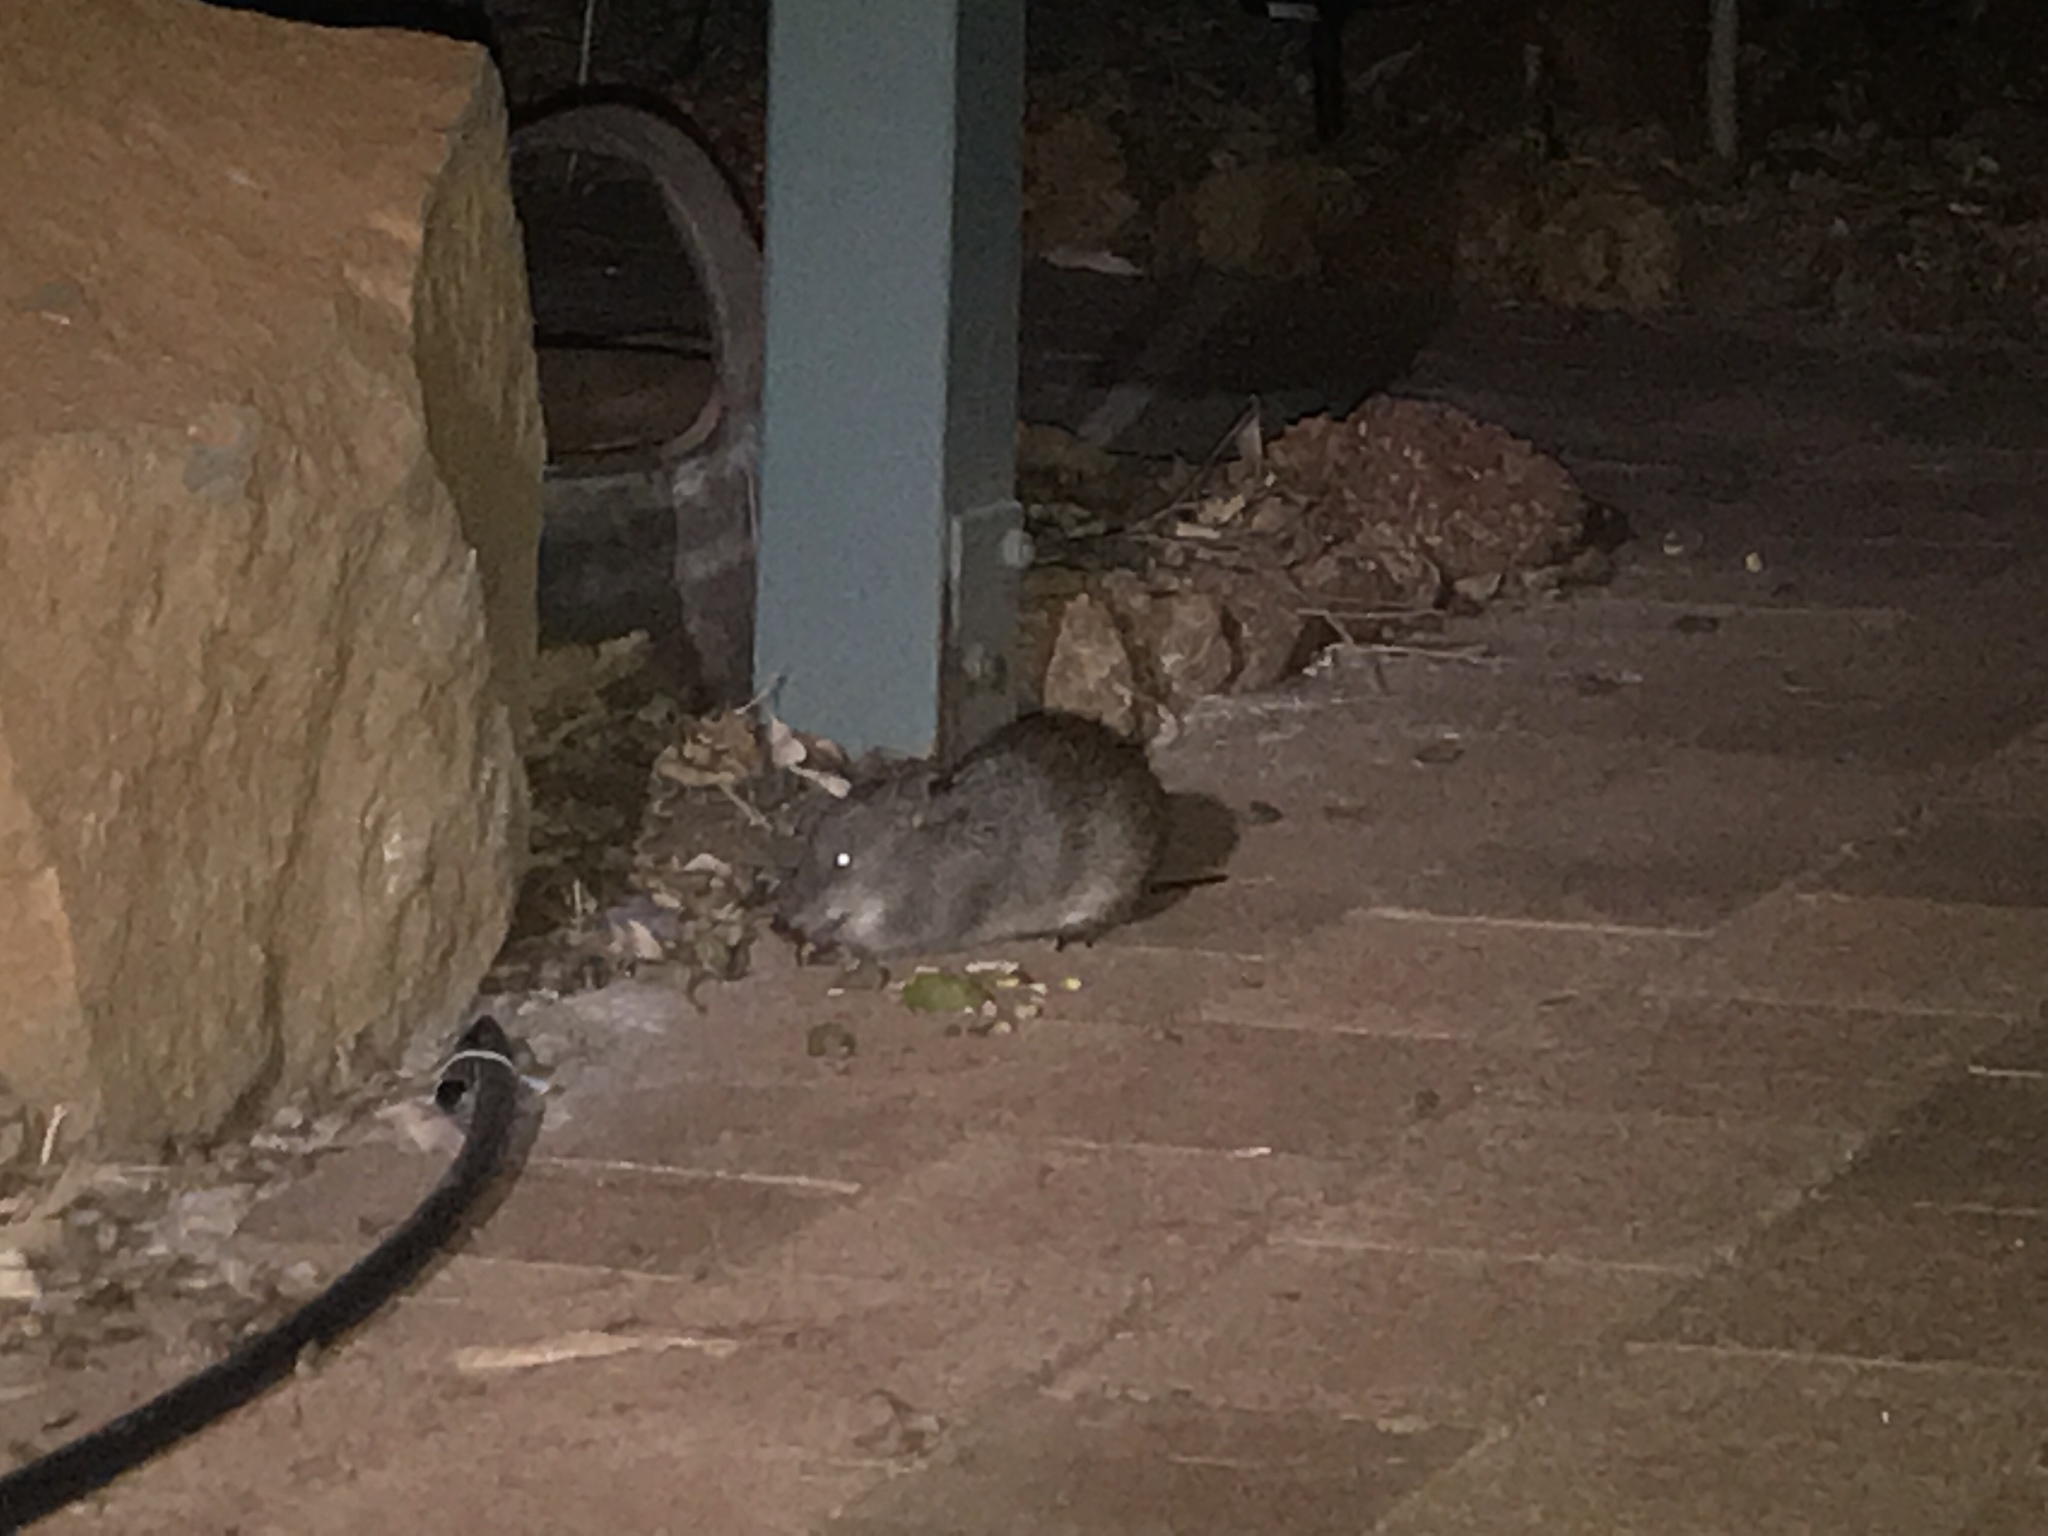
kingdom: Animalia
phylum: Chordata
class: Mammalia
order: Peramelemorphia
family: Peramelidae
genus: Isoodon
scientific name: Isoodon fusciventer
